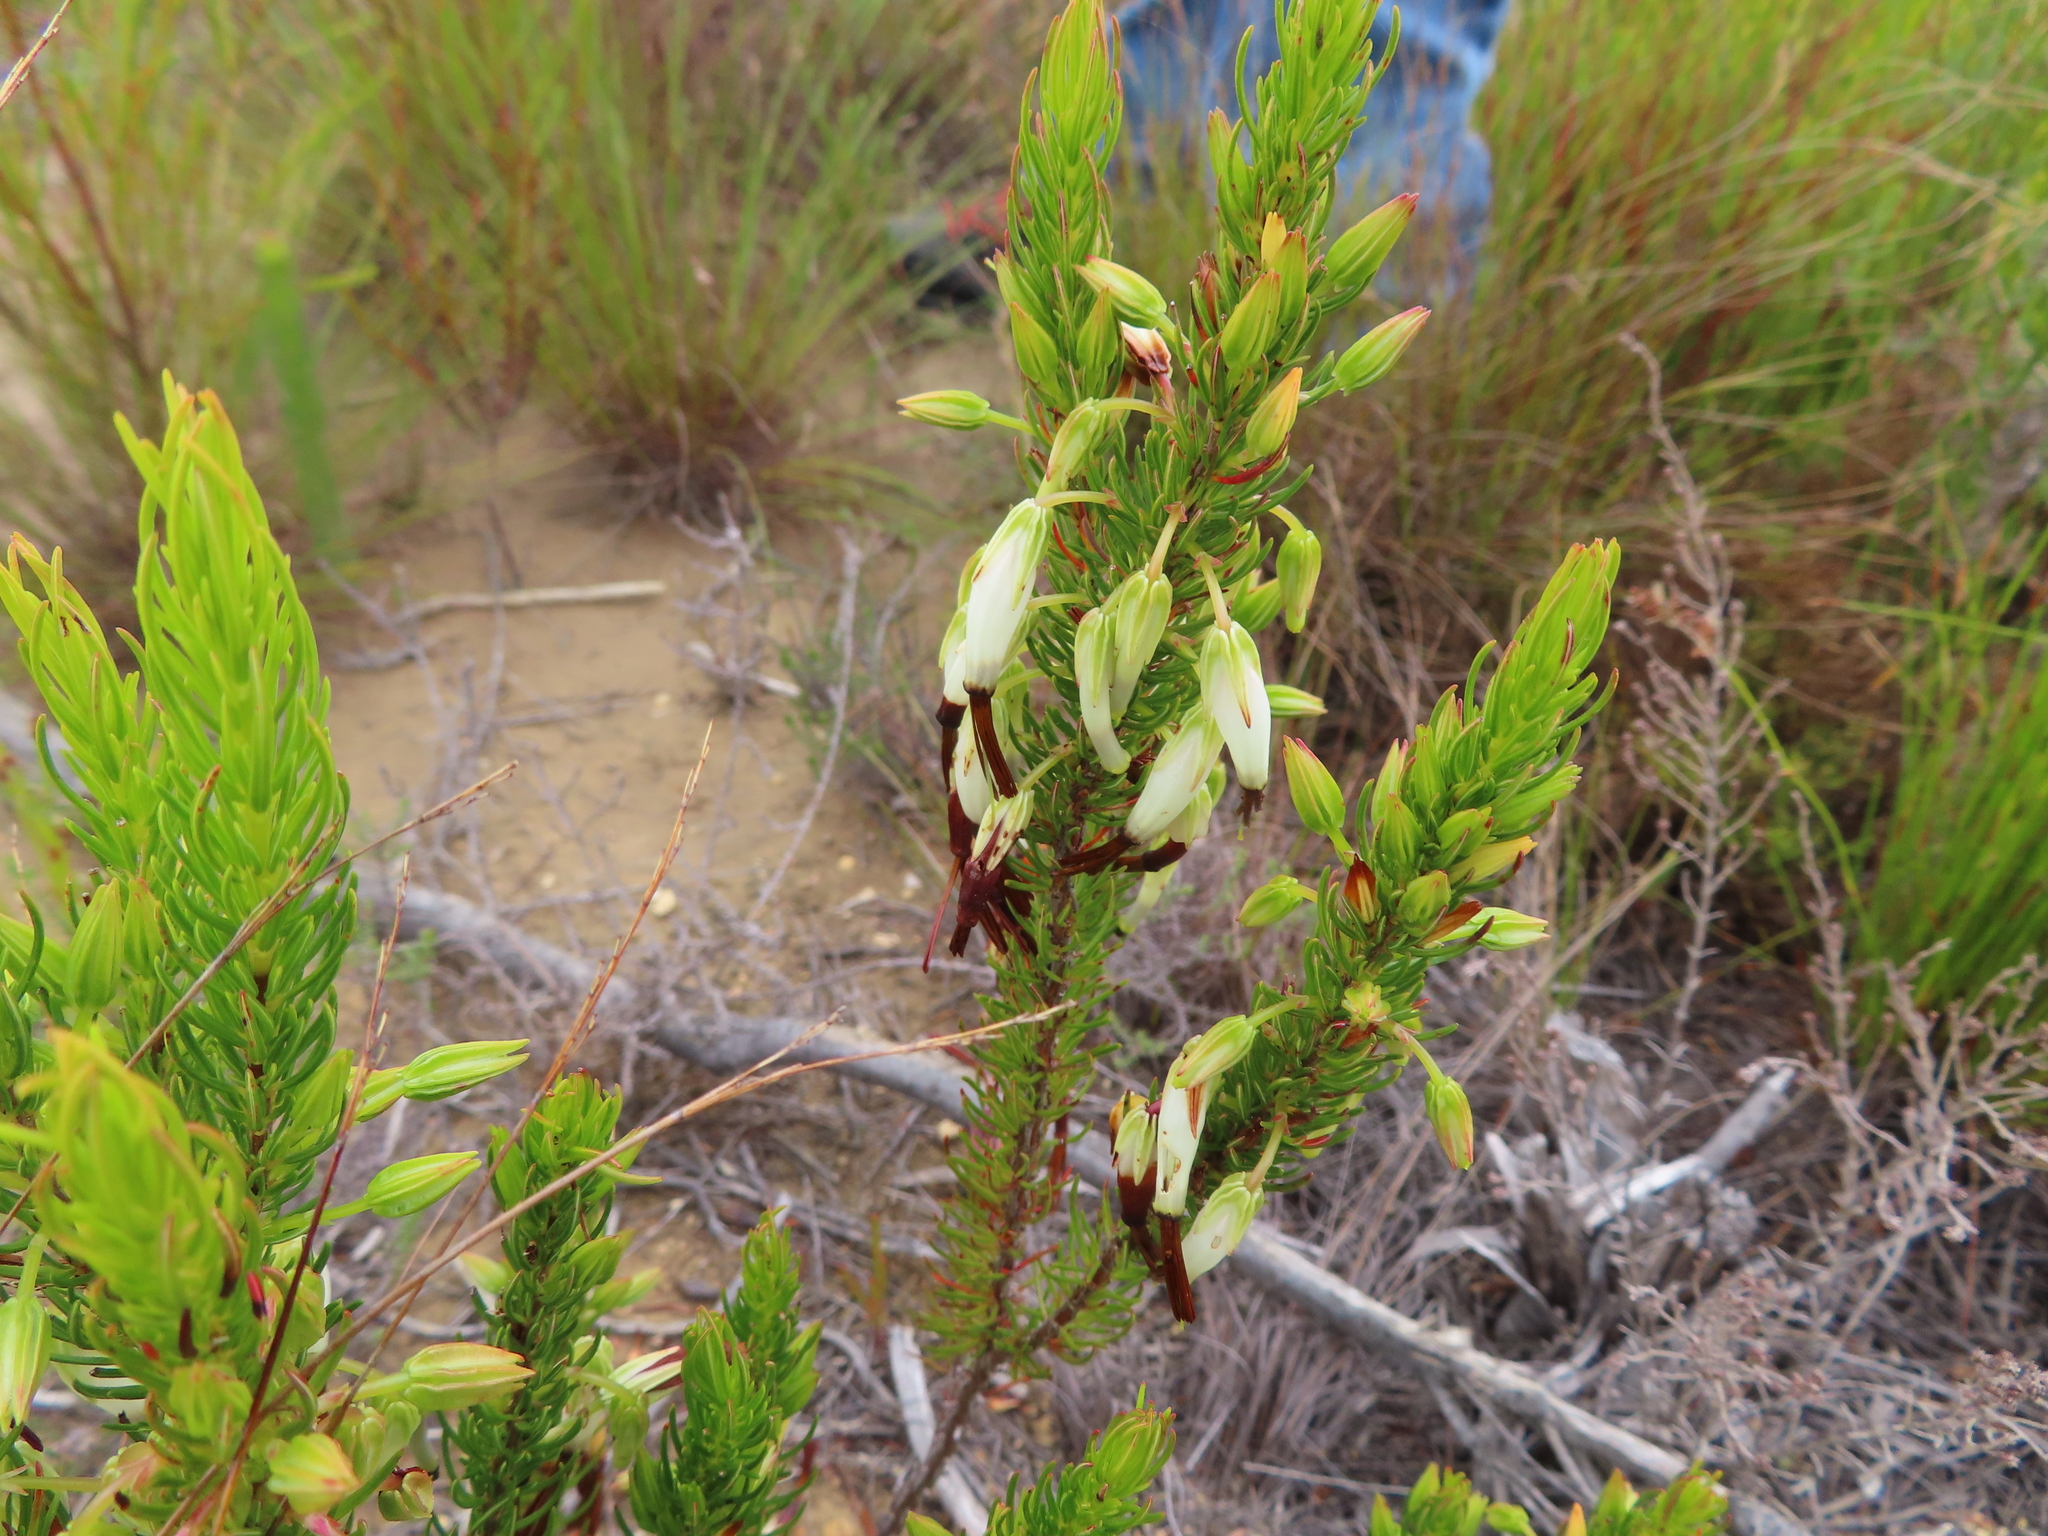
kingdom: Plantae
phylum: Tracheophyta
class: Magnoliopsida
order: Ericales
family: Ericaceae
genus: Erica
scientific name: Erica plukenetii
